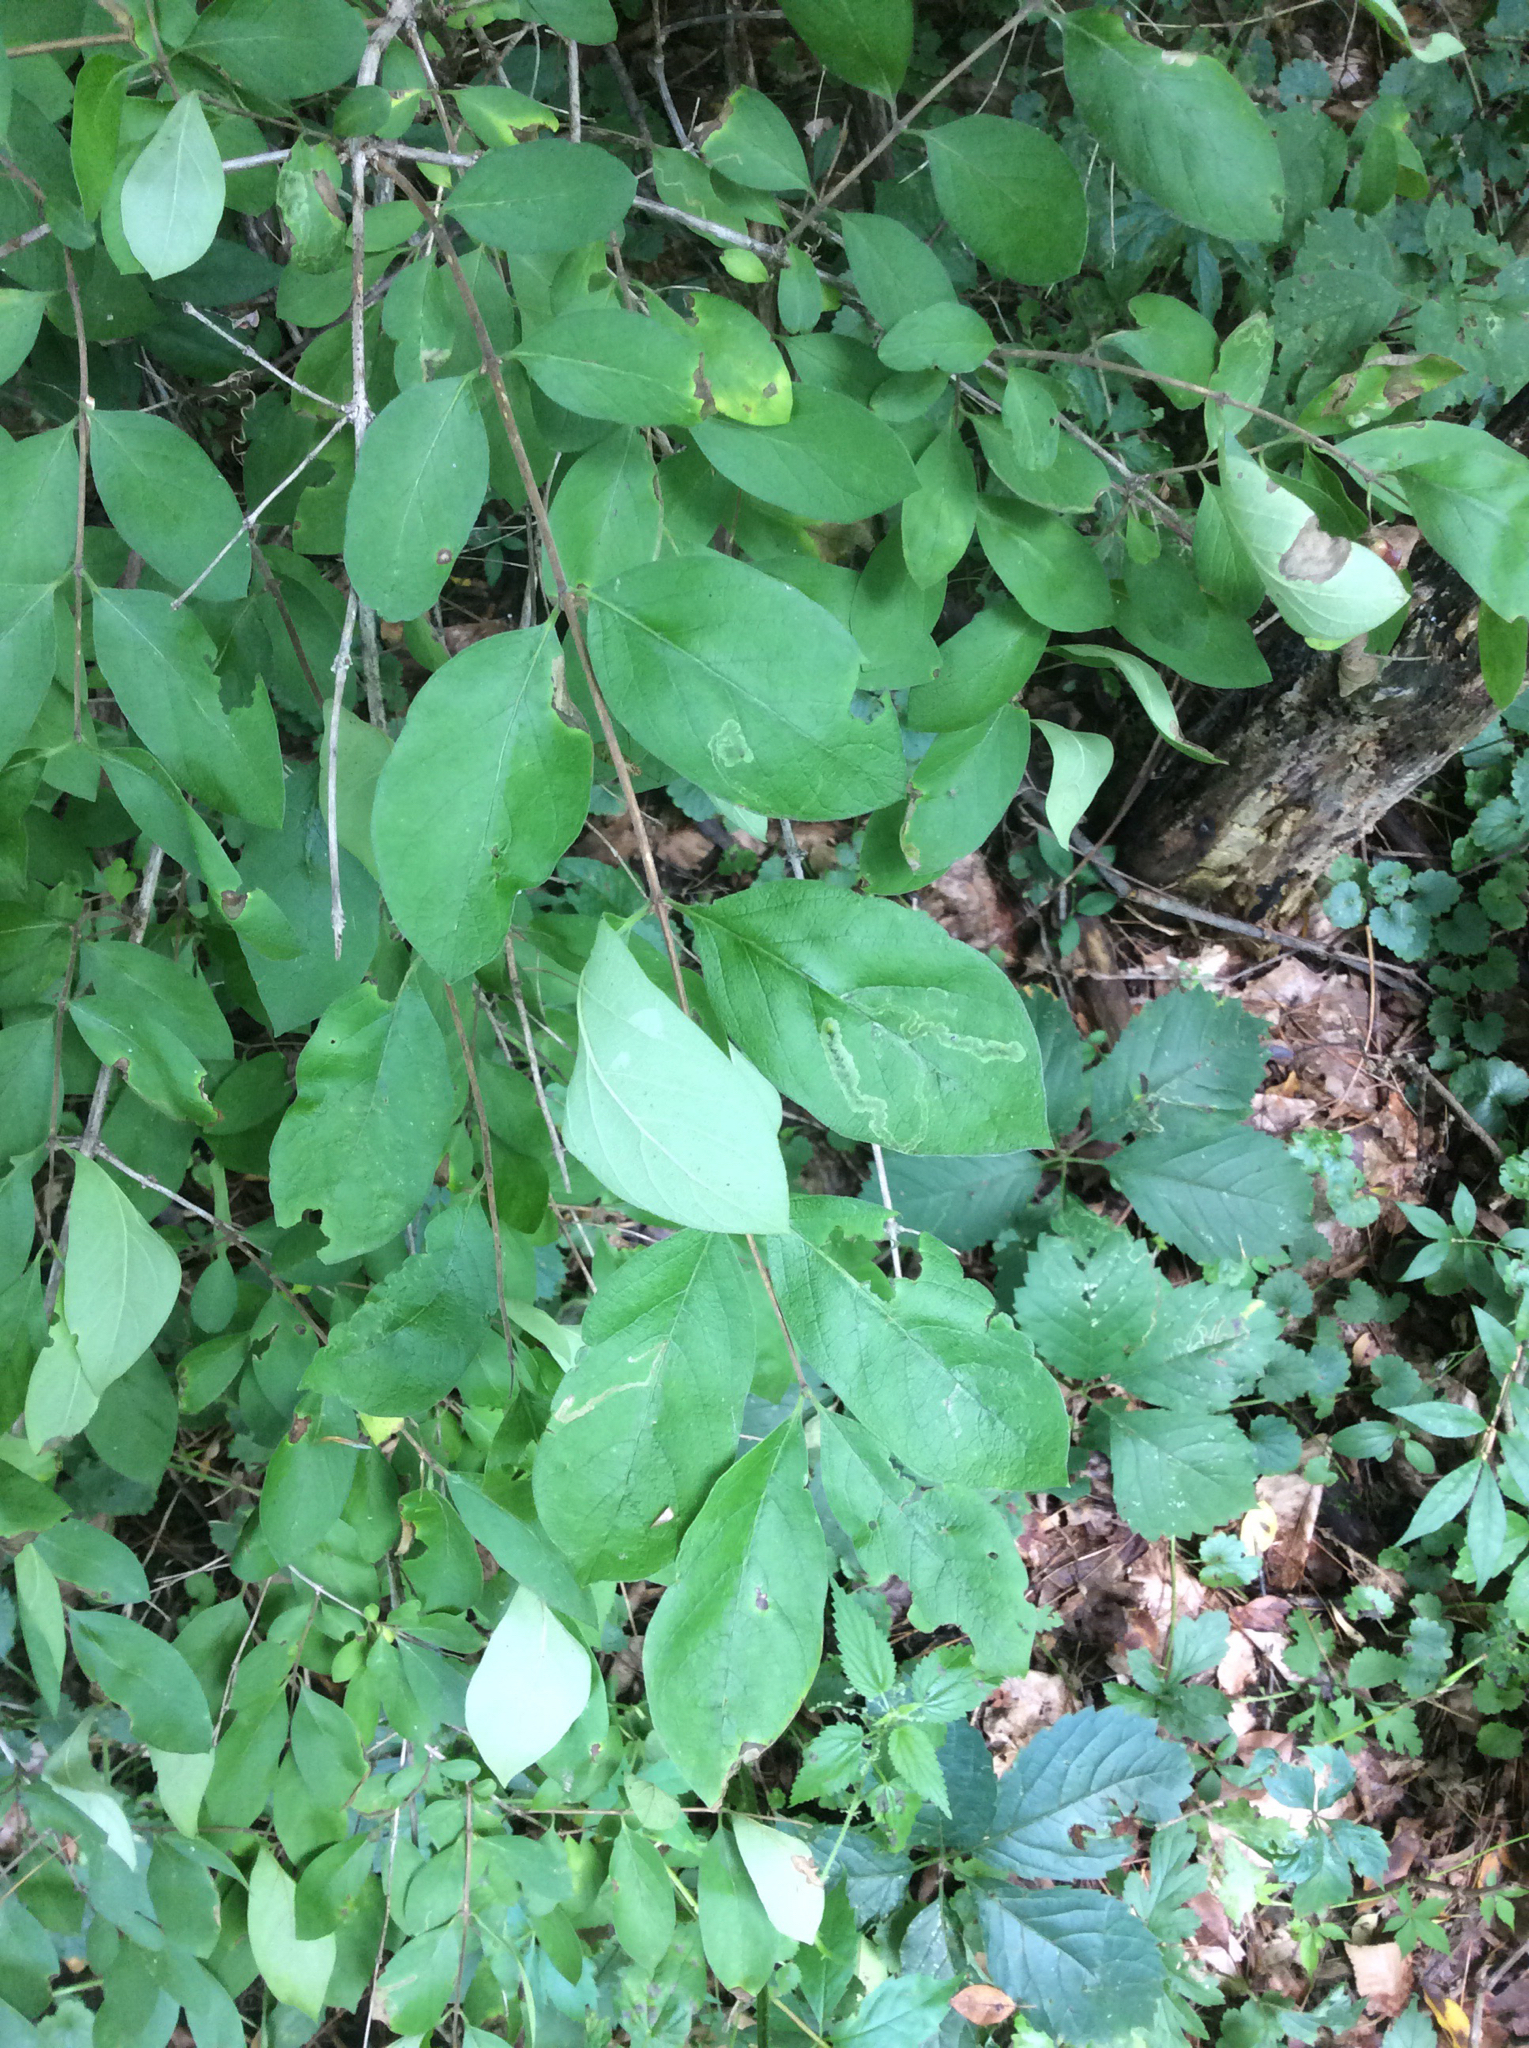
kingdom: Plantae
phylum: Tracheophyta
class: Magnoliopsida
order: Dipsacales
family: Caprifoliaceae
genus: Lonicera
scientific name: Lonicera morrowii
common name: Morrow's honeysuckle
